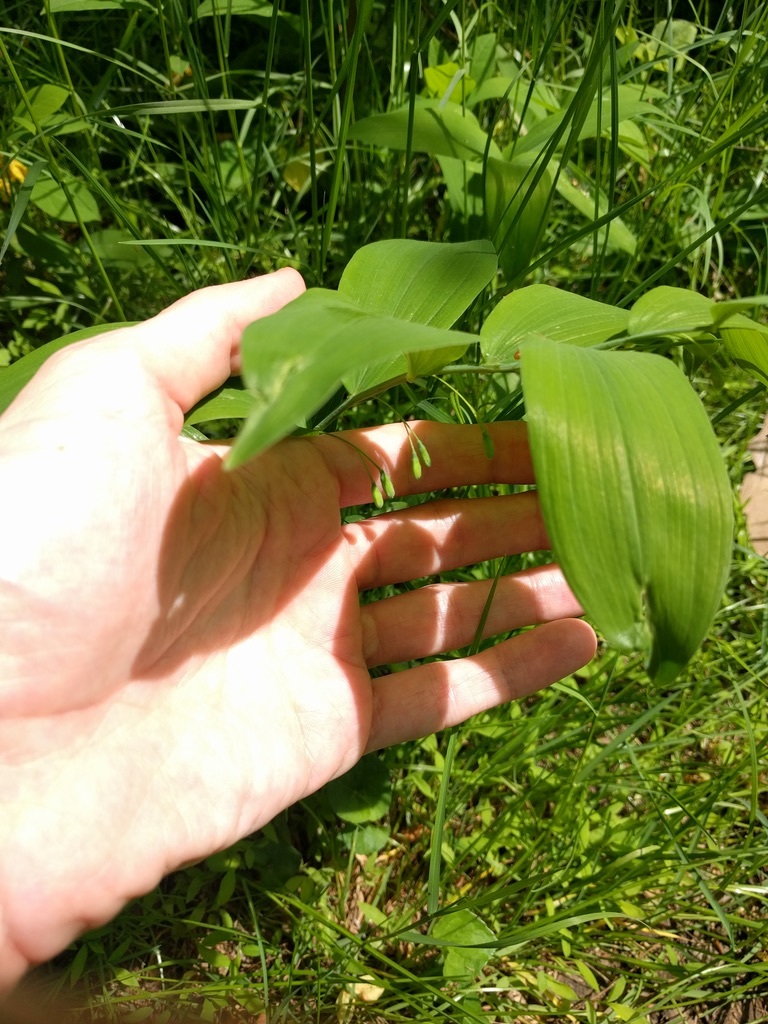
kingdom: Plantae
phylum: Tracheophyta
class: Liliopsida
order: Asparagales
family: Asparagaceae
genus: Polygonatum
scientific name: Polygonatum biflorum
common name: American solomon's-seal
